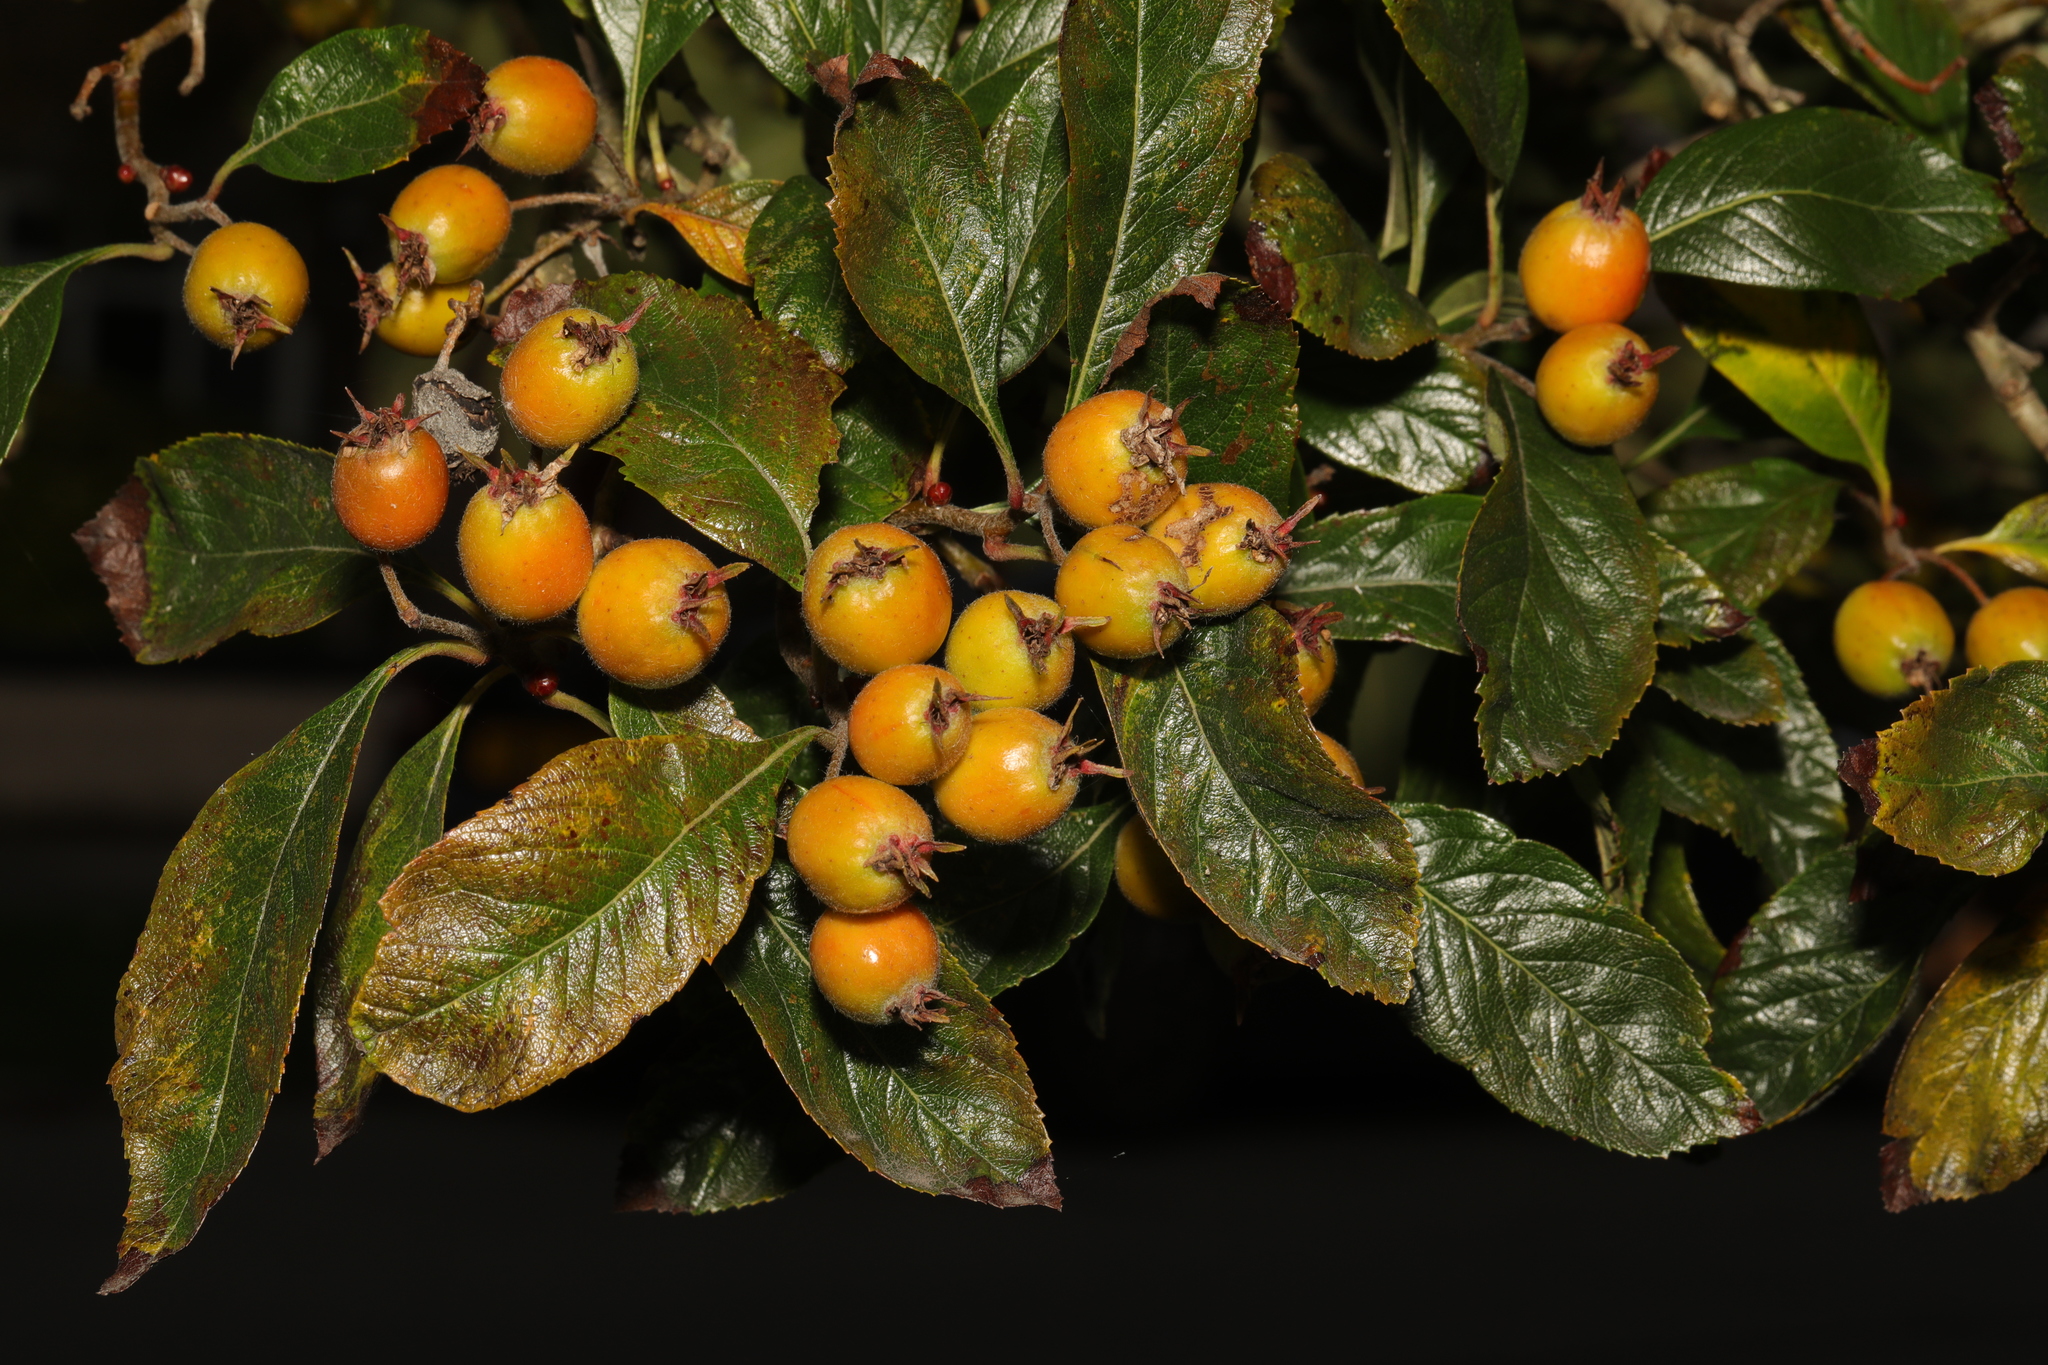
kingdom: Plantae
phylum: Tracheophyta
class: Magnoliopsida
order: Rosales
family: Rosaceae
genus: Crataegus
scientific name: Crataegus crus-galli
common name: Cockspurthorn
